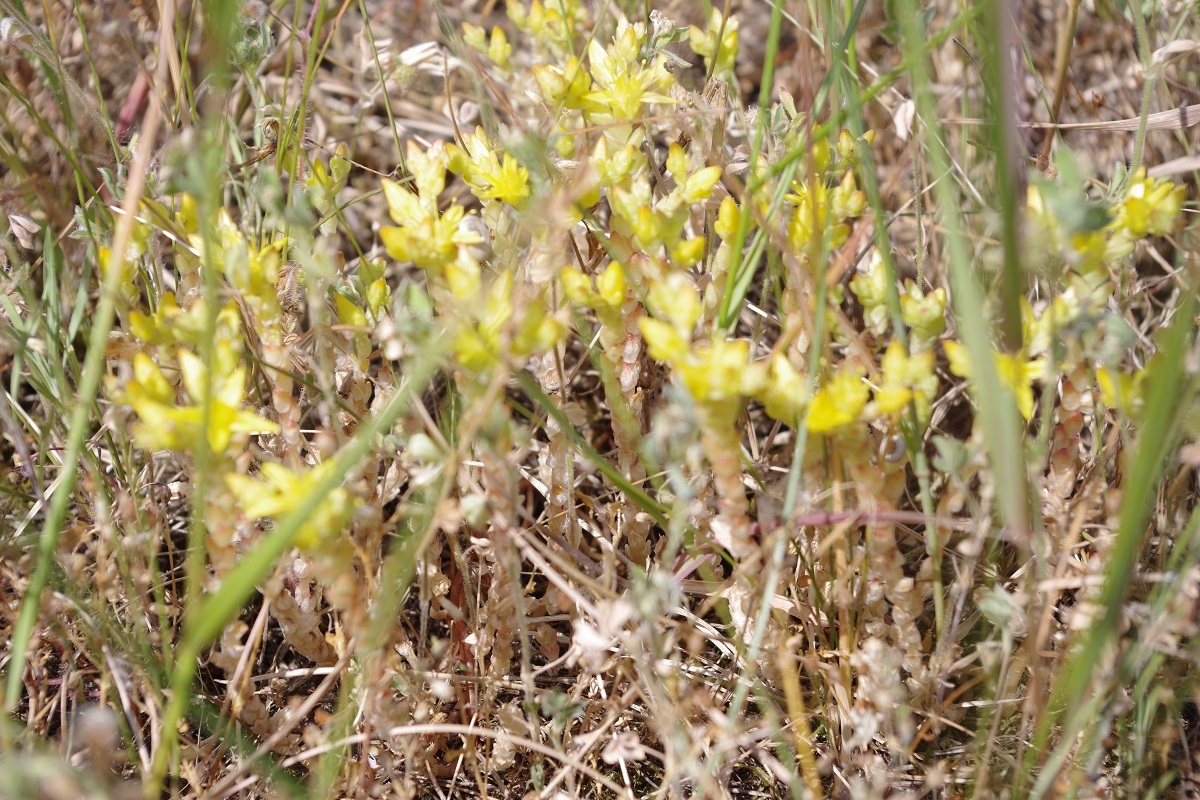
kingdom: Plantae
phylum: Tracheophyta
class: Magnoliopsida
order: Saxifragales
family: Crassulaceae
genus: Sedum
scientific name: Sedum acre
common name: Biting stonecrop
